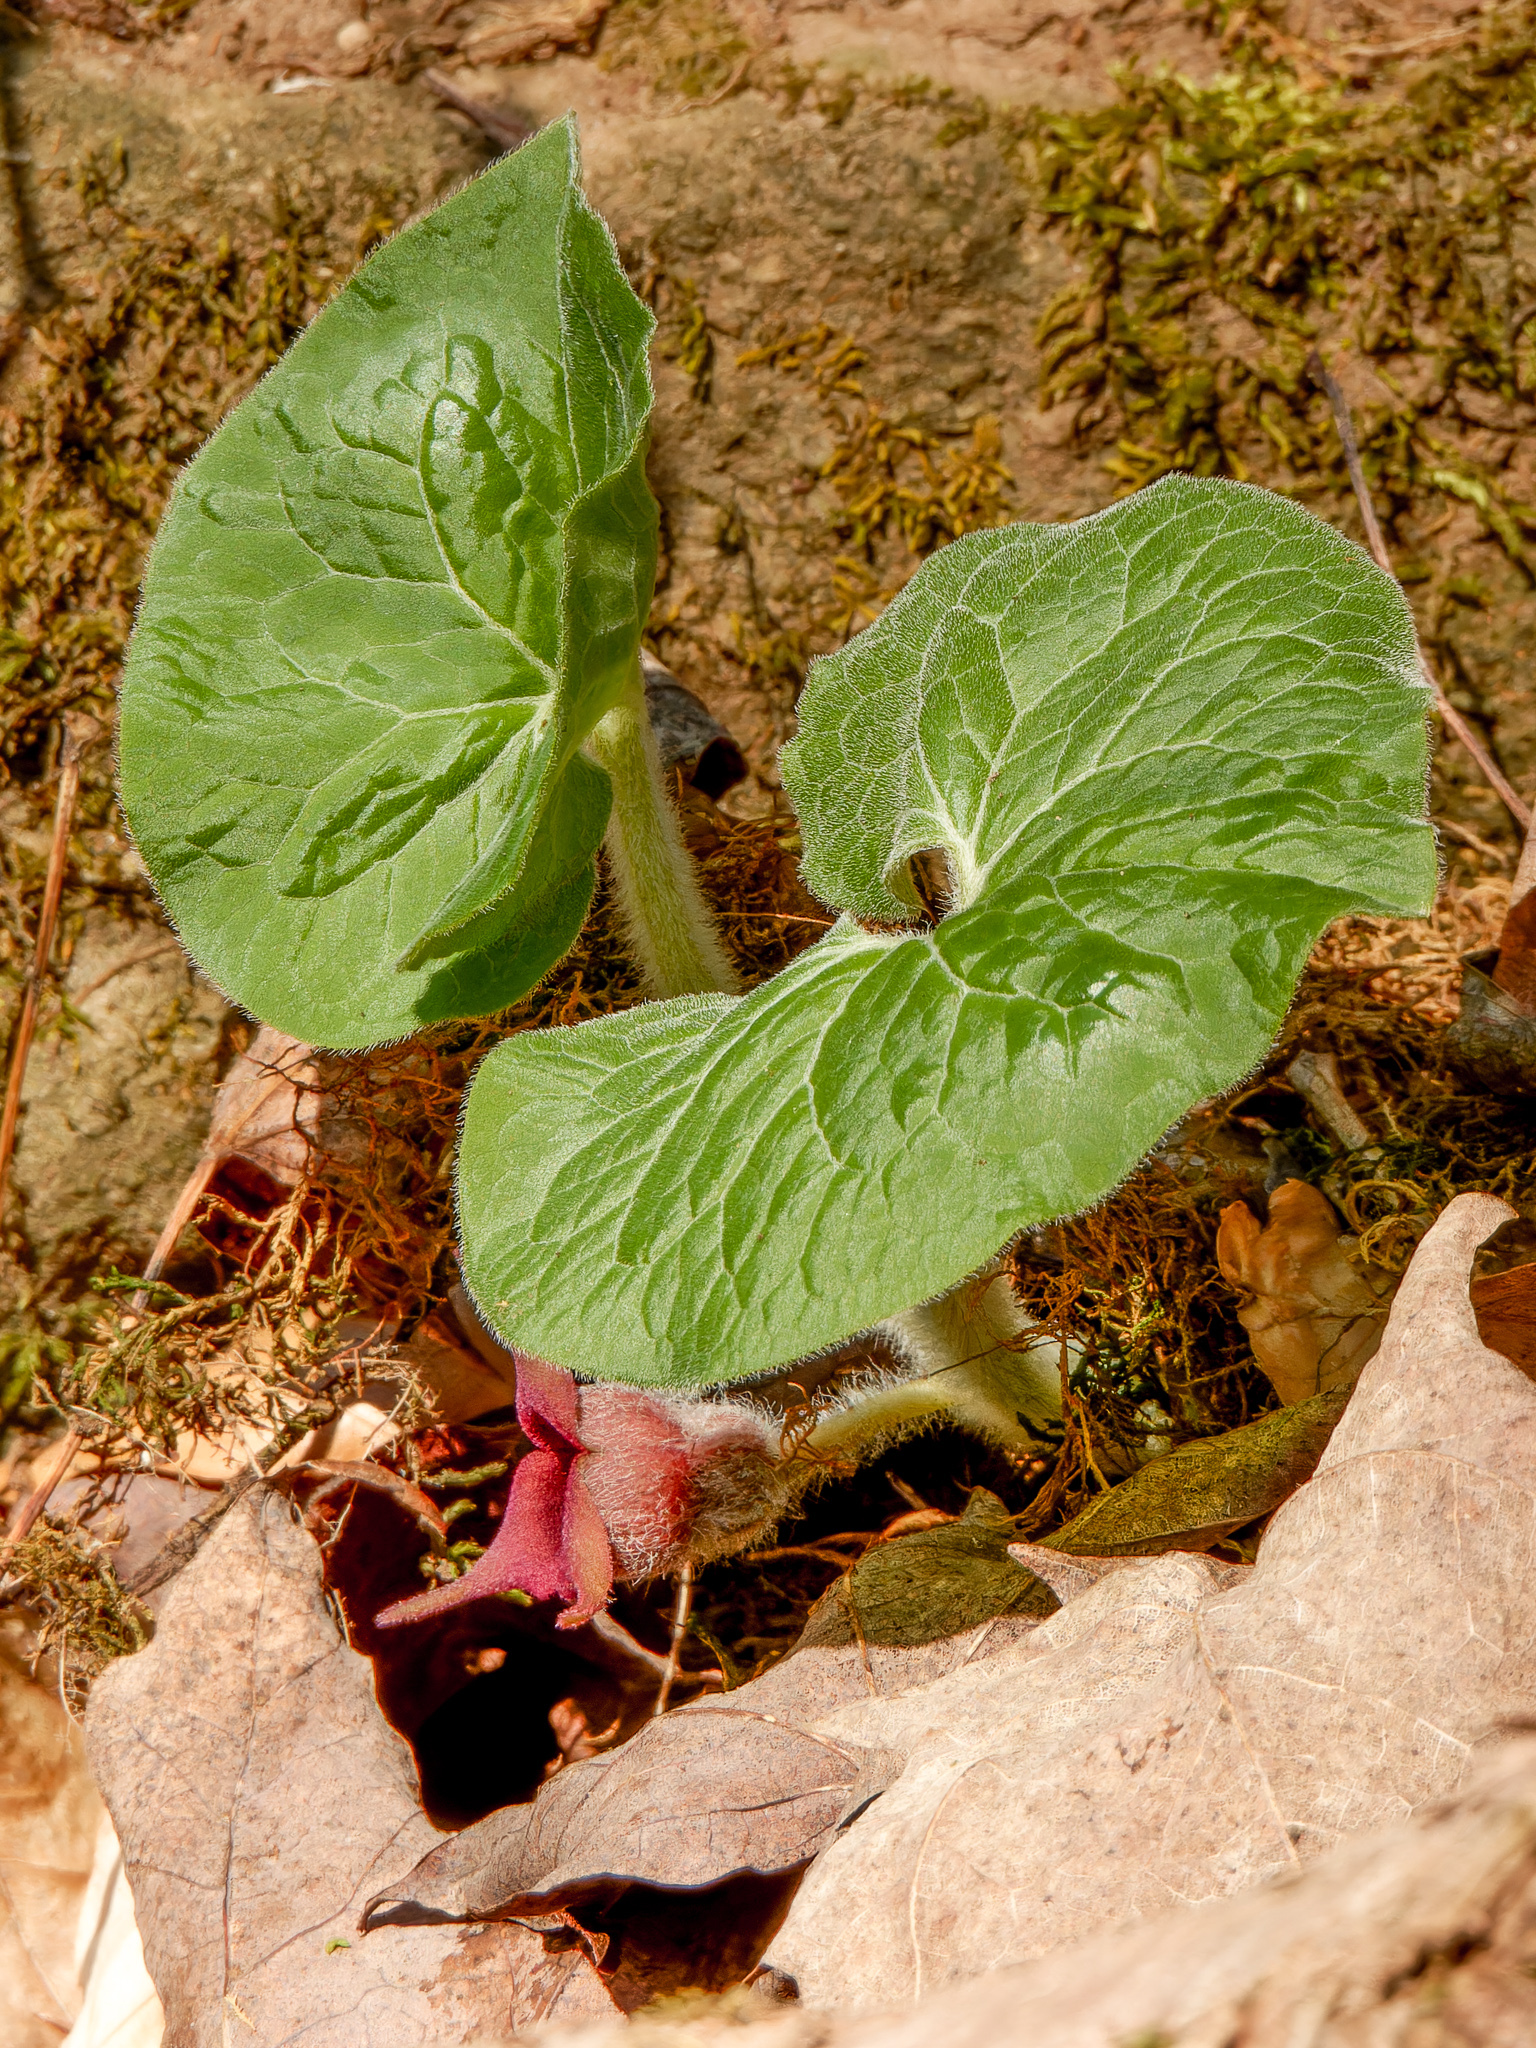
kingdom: Plantae
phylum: Tracheophyta
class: Magnoliopsida
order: Piperales
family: Aristolochiaceae
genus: Asarum
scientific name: Asarum canadense
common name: Wild ginger
